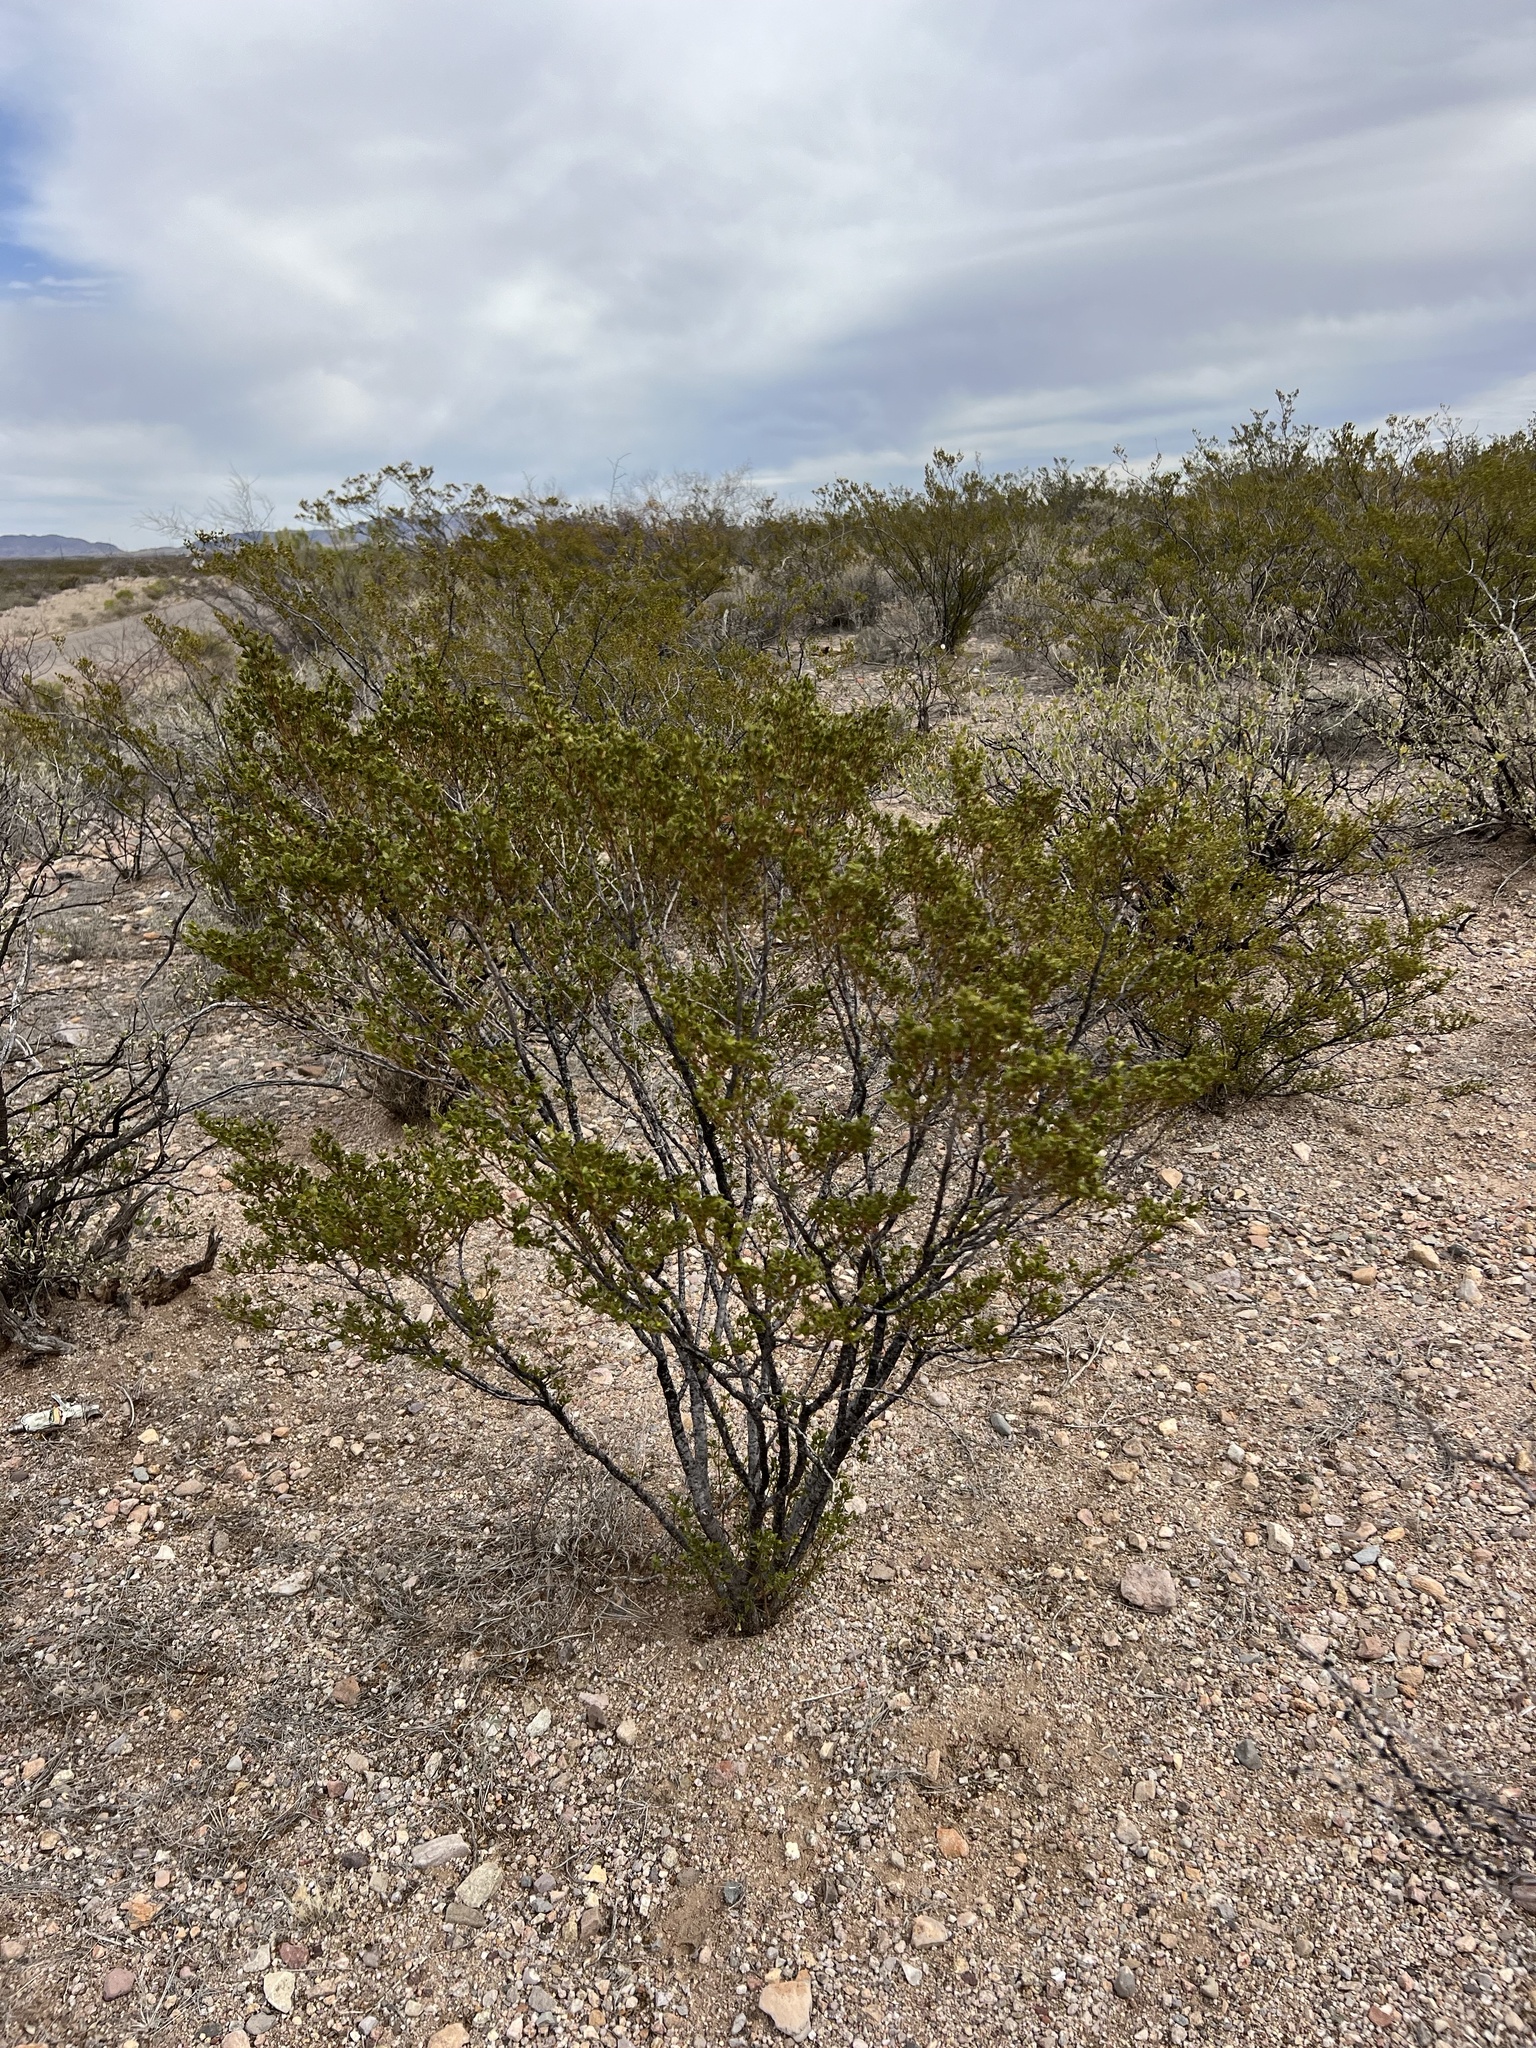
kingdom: Plantae
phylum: Tracheophyta
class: Magnoliopsida
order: Zygophyllales
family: Zygophyllaceae
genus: Larrea
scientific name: Larrea tridentata
